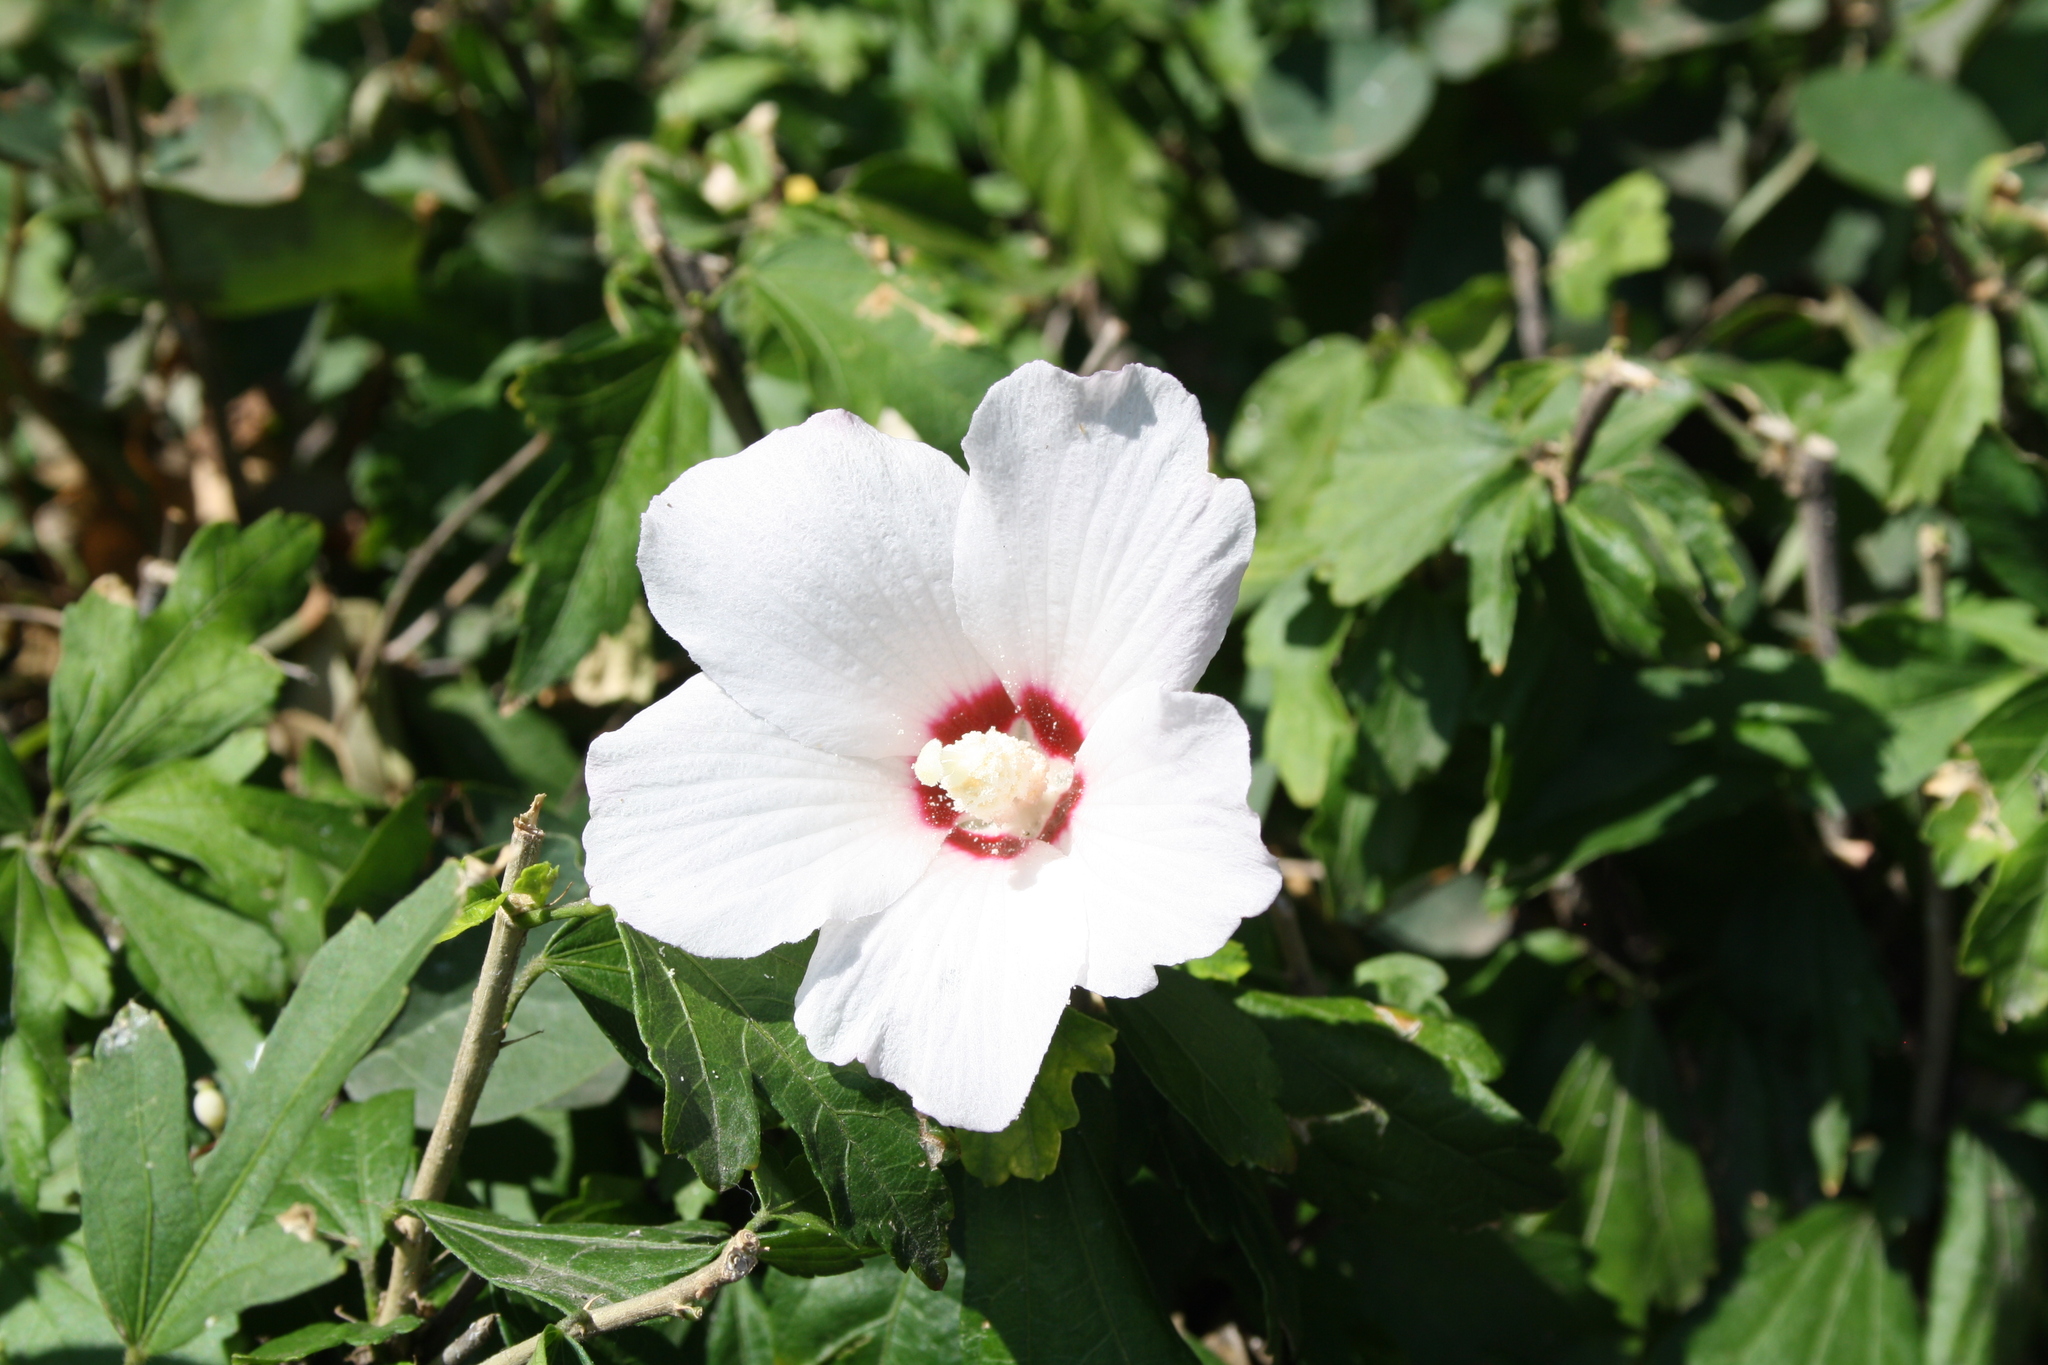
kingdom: Plantae
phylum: Tracheophyta
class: Magnoliopsida
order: Malvales
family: Malvaceae
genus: Hibiscus
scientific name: Hibiscus syriacus
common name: Syrian ketmia
